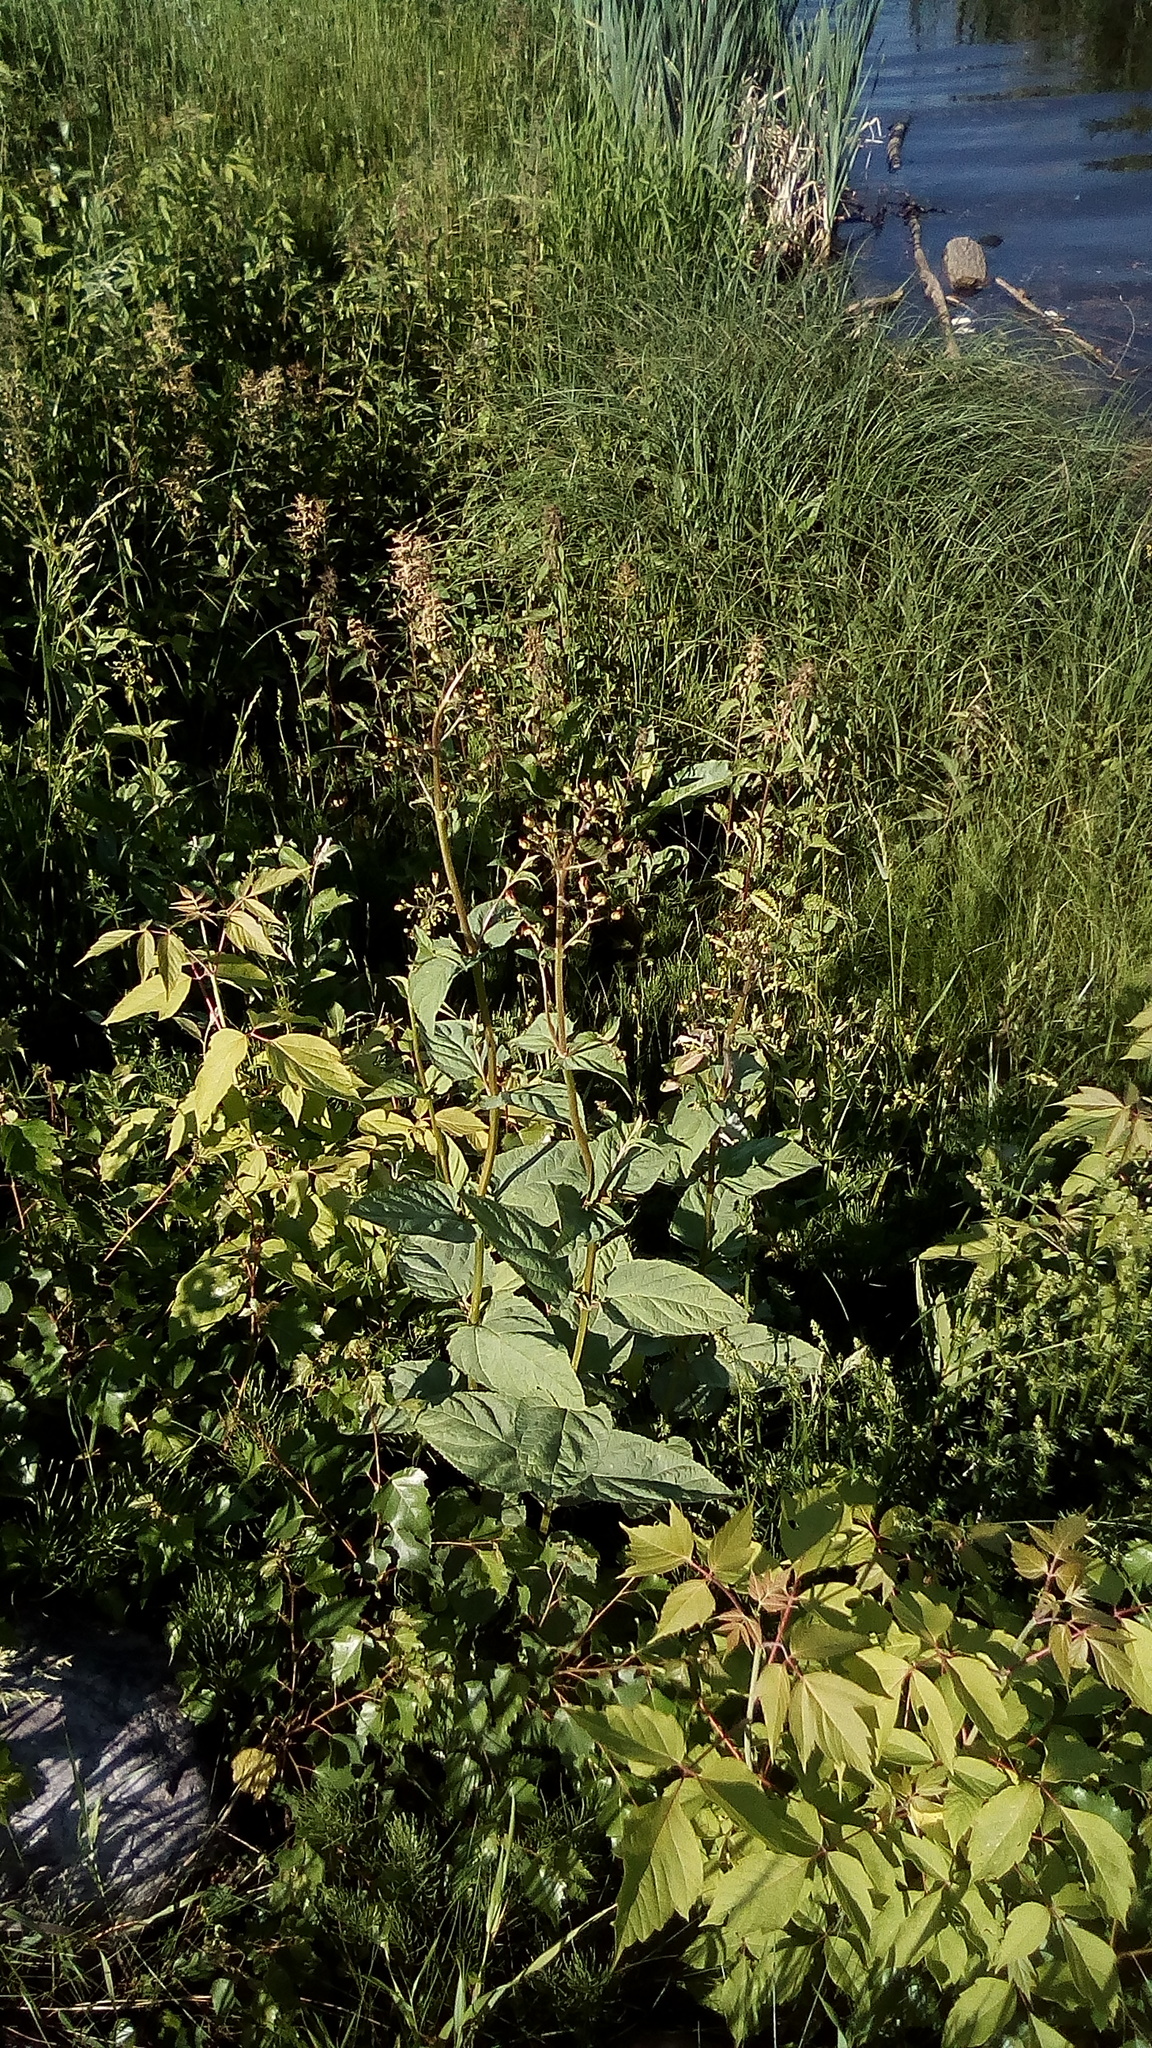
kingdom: Plantae
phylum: Tracheophyta
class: Magnoliopsida
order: Lamiales
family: Scrophulariaceae
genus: Scrophularia
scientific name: Scrophularia nodosa
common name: Common figwort
